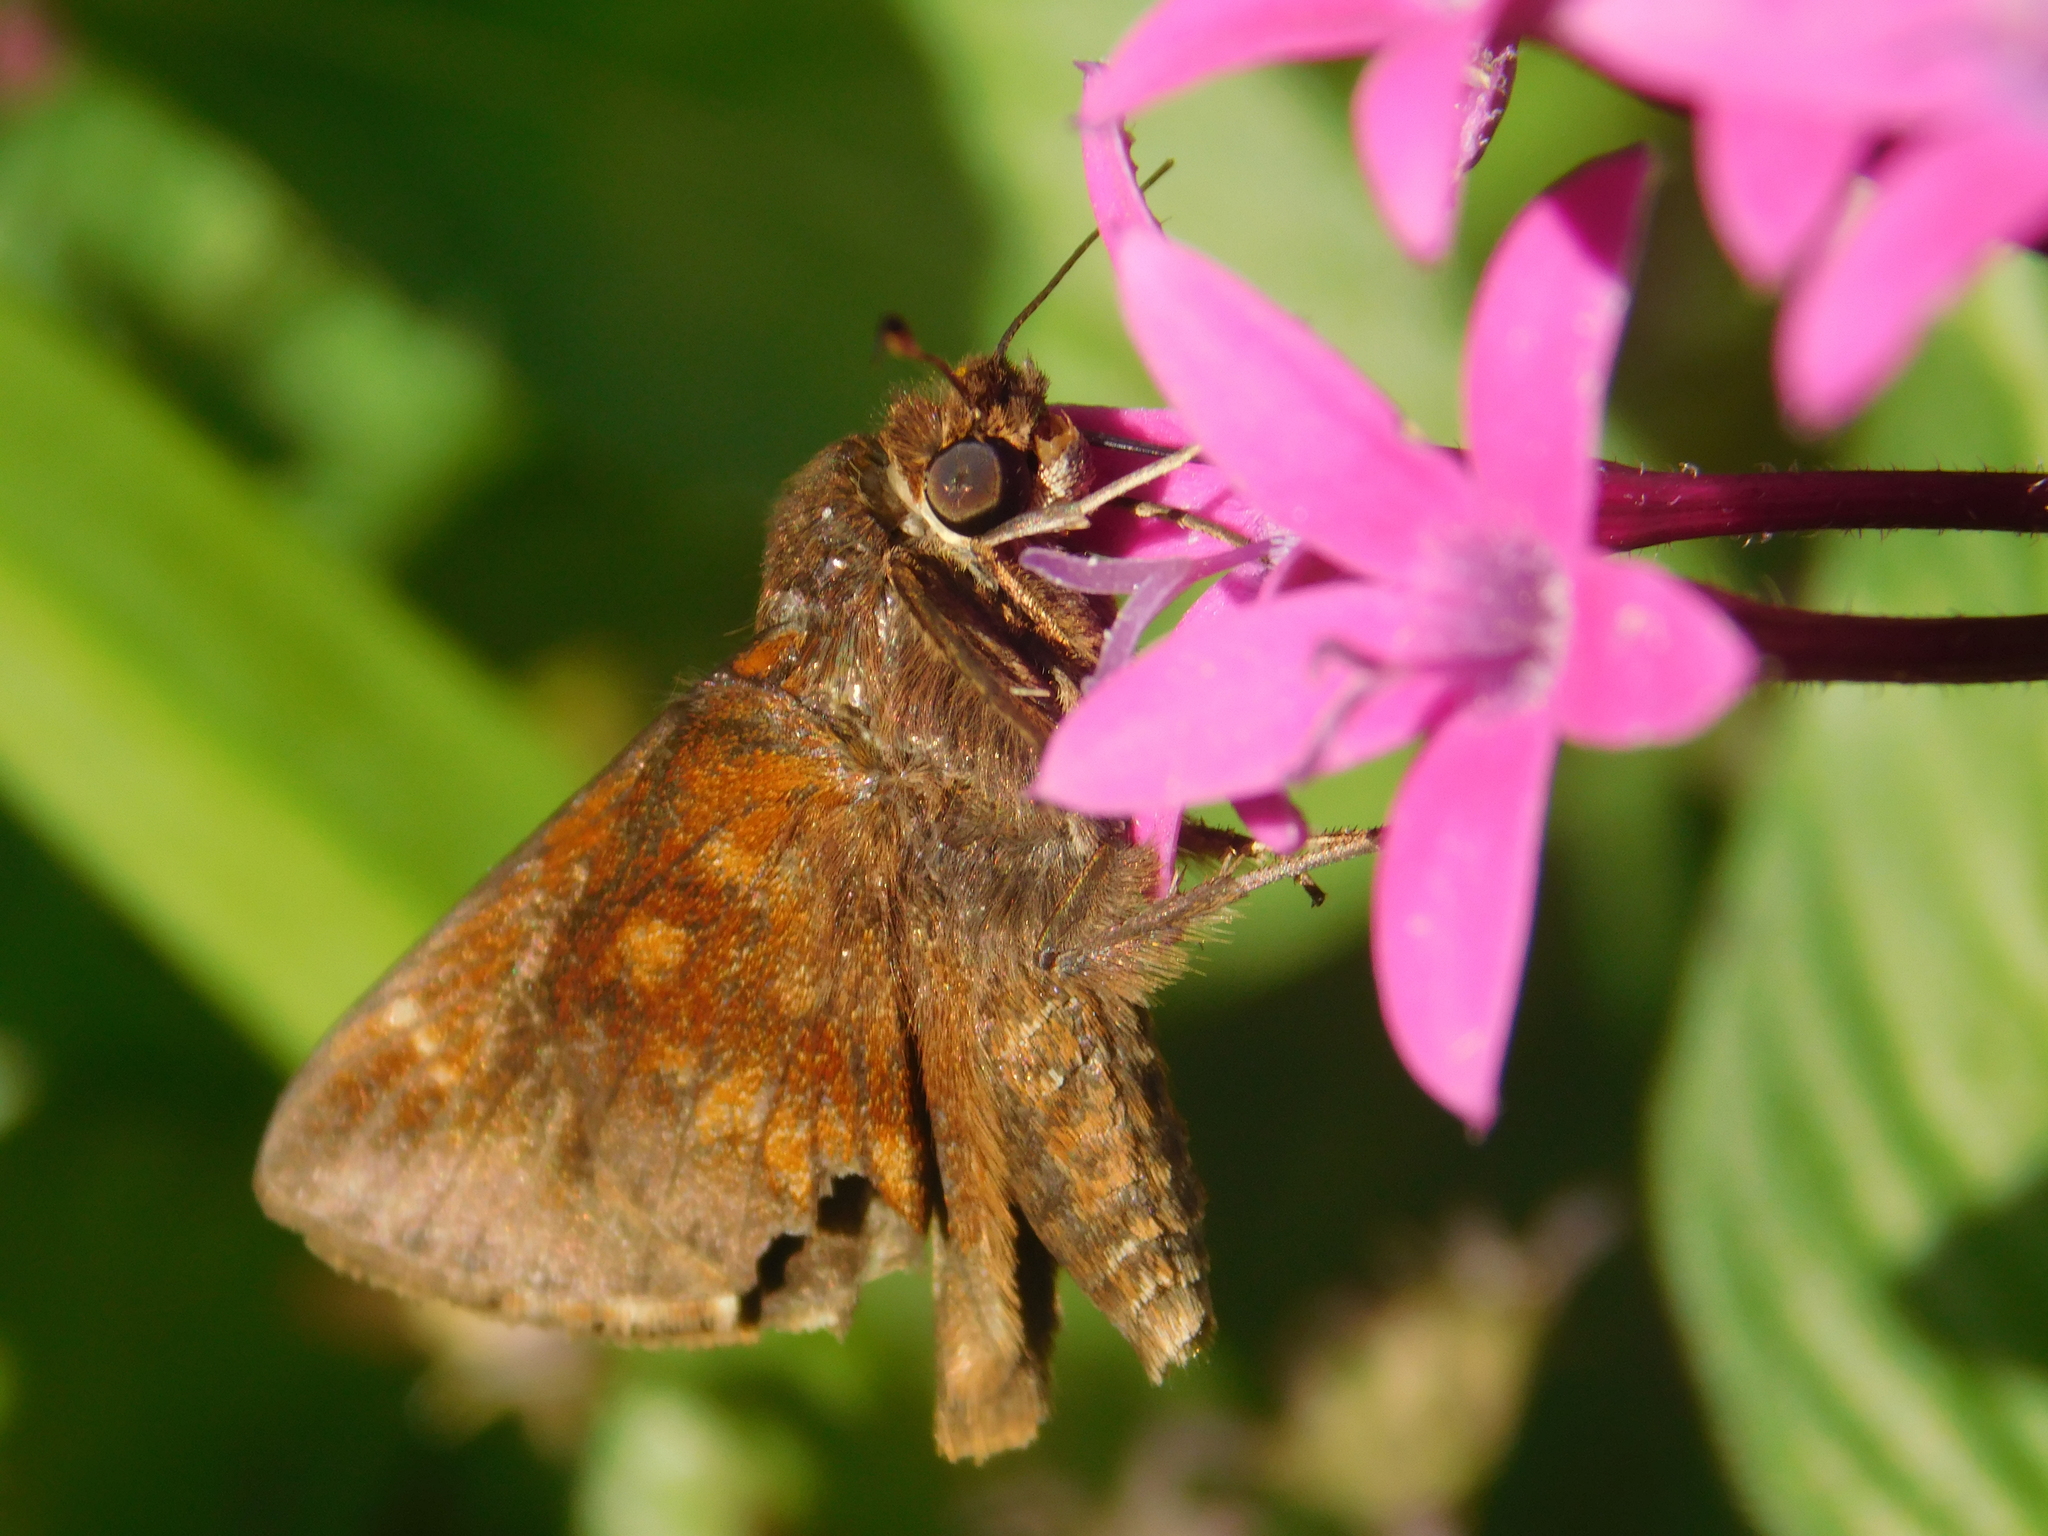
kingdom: Animalia
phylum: Arthropoda
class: Insecta
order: Lepidoptera
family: Hesperiidae
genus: Quinta
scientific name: Quinta cannae
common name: Canna skipper
